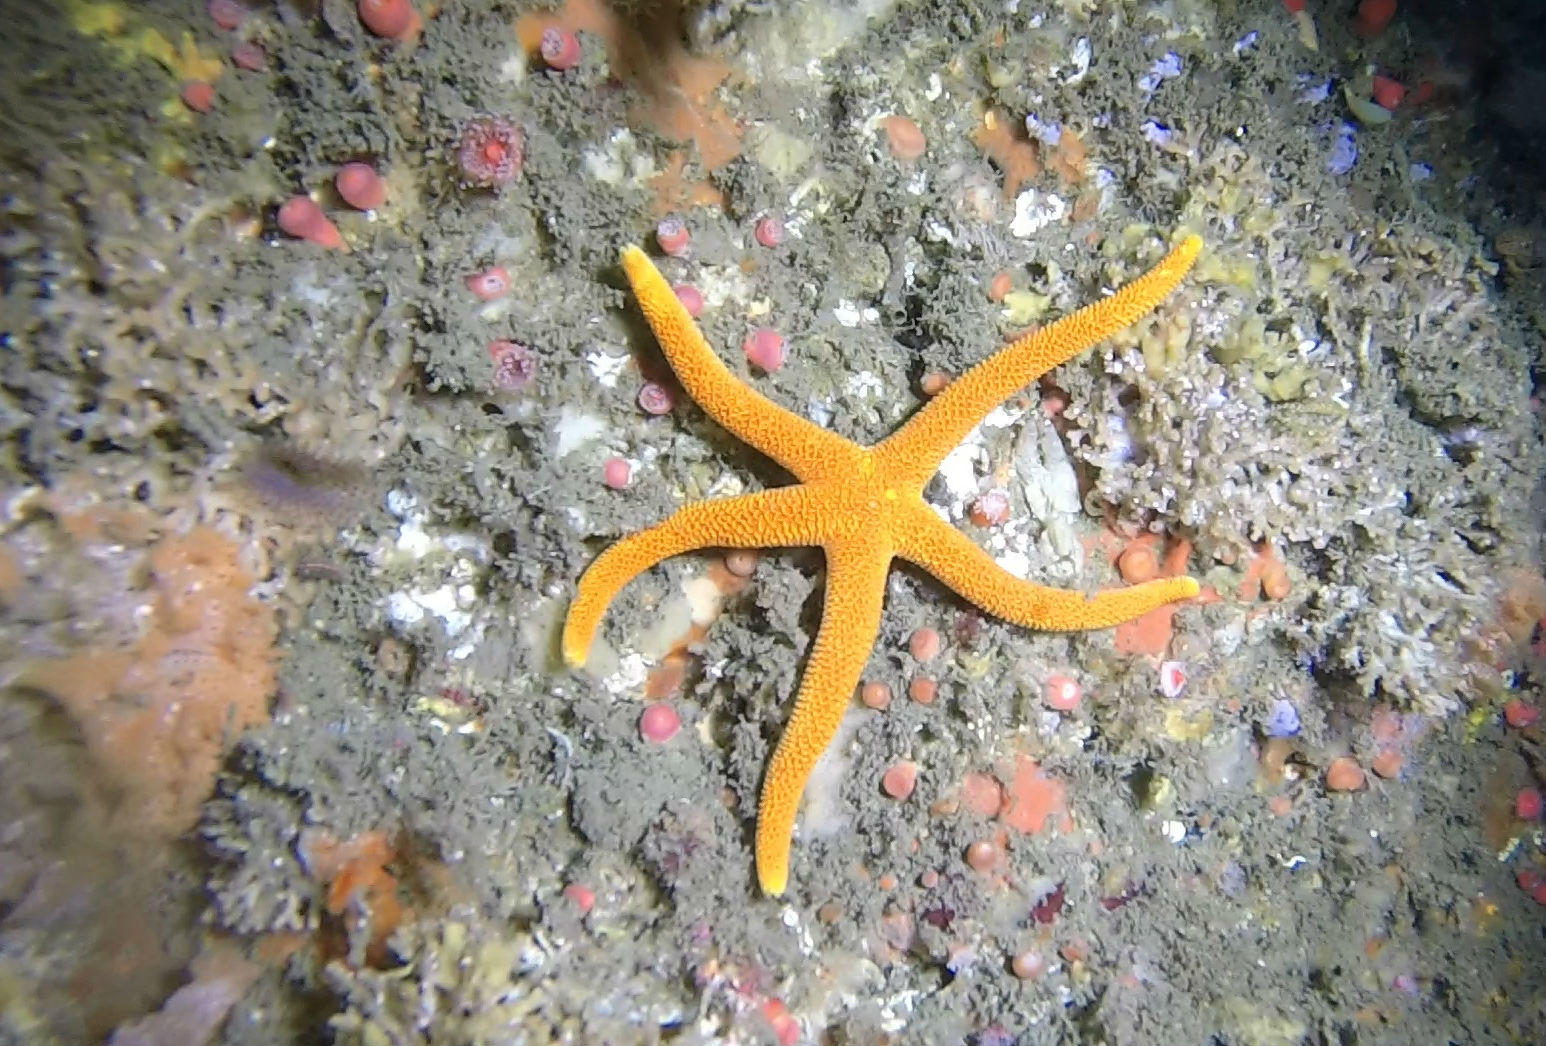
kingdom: Animalia
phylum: Echinodermata
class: Asteroidea
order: Spinulosida
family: Echinasteridae
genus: Henricia
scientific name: Henricia leviuscula
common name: Pacific blood star
